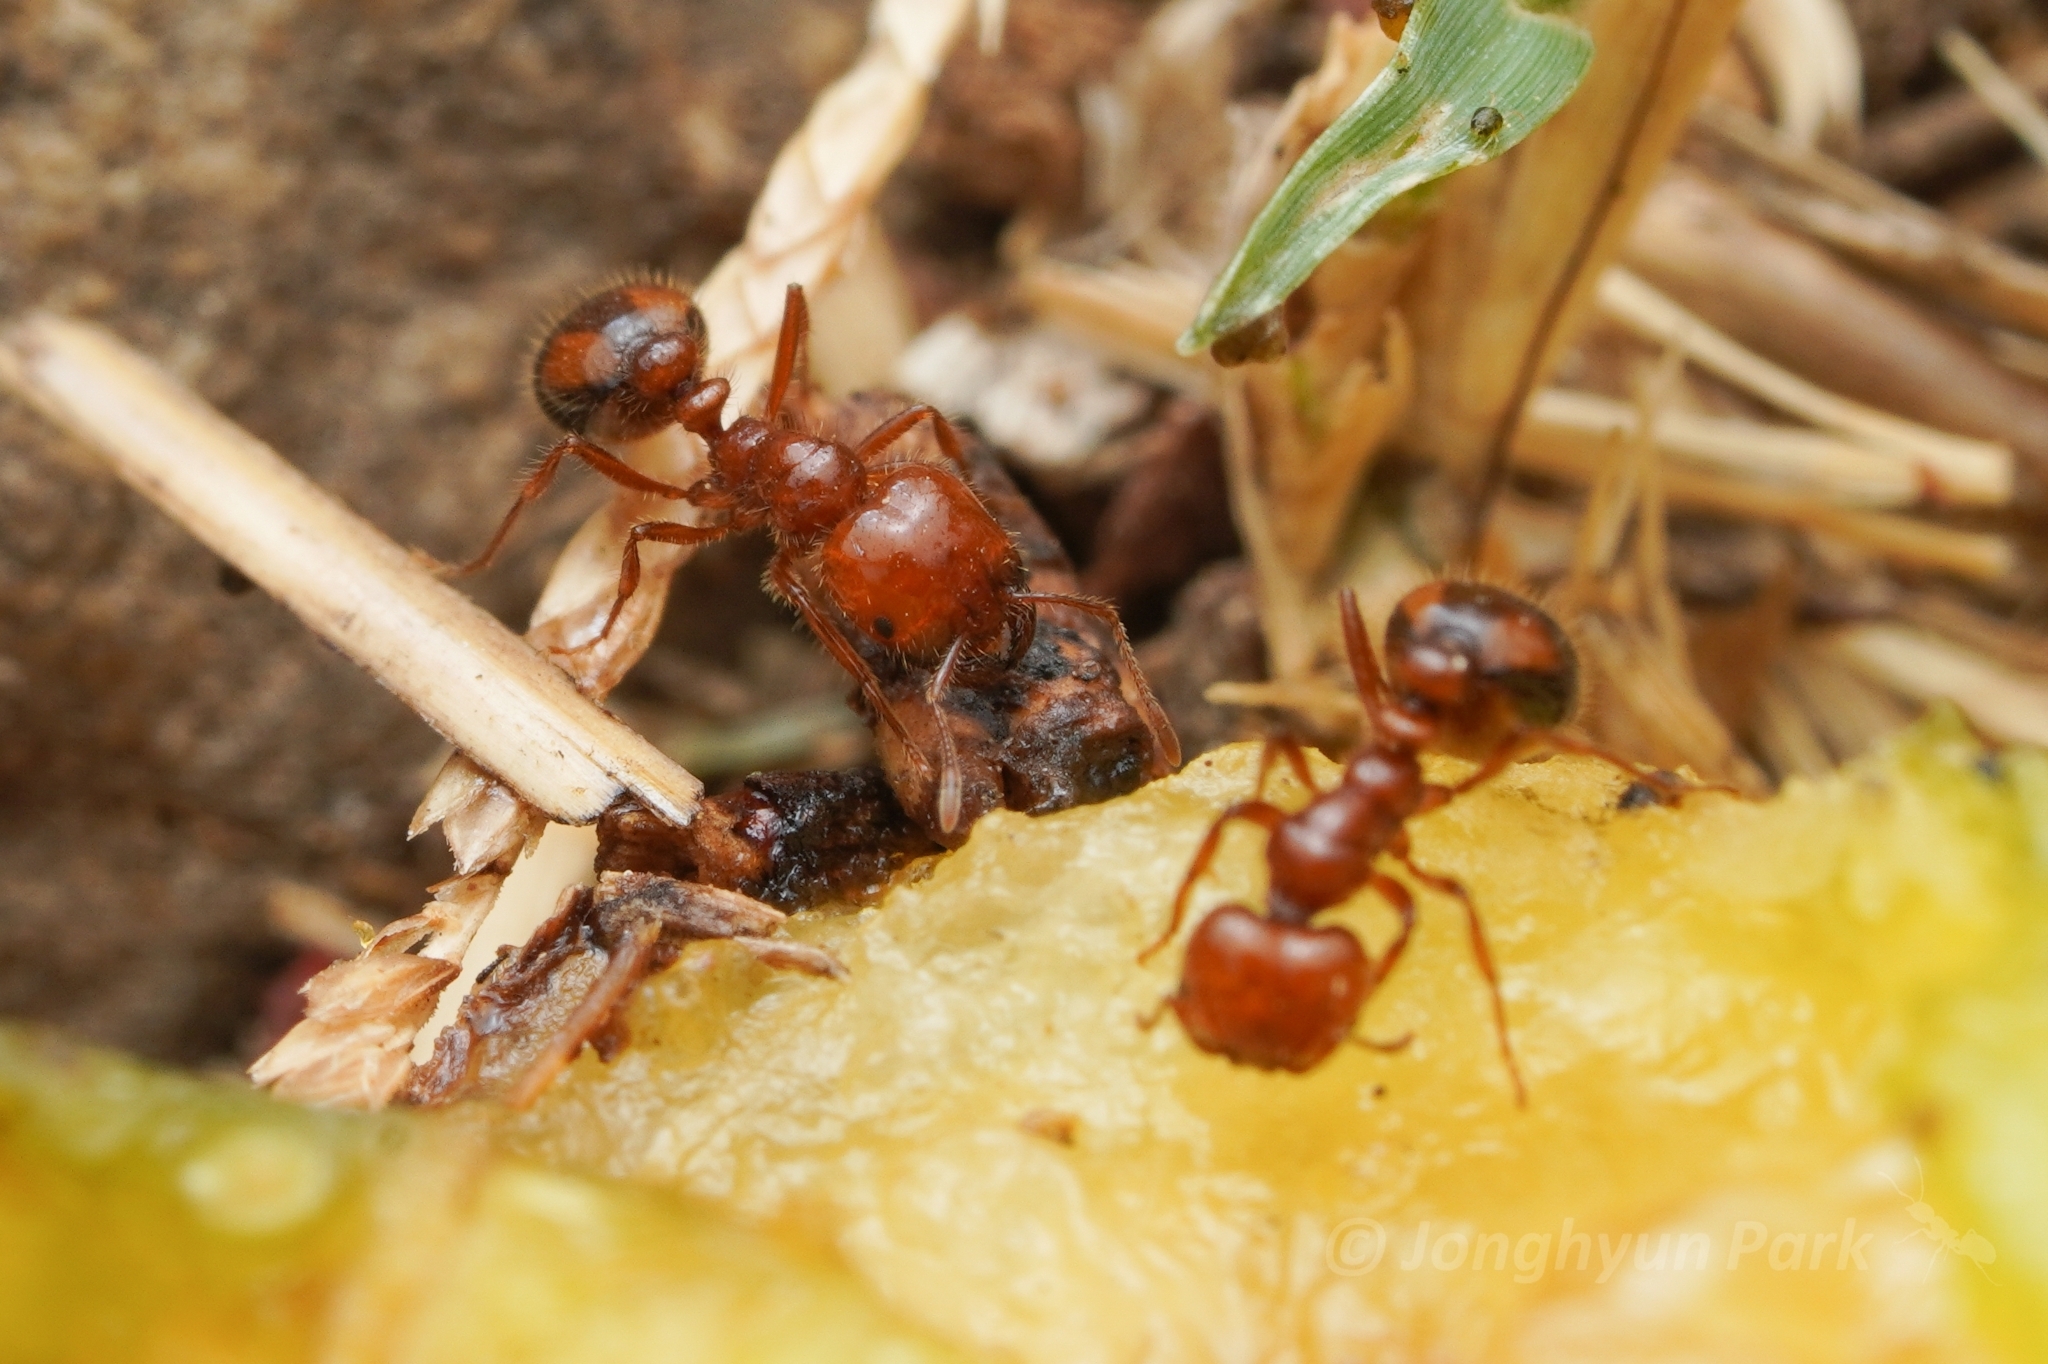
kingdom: Animalia
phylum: Arthropoda
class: Insecta
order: Hymenoptera
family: Formicidae
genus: Solenopsis
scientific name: Solenopsis xyloni
